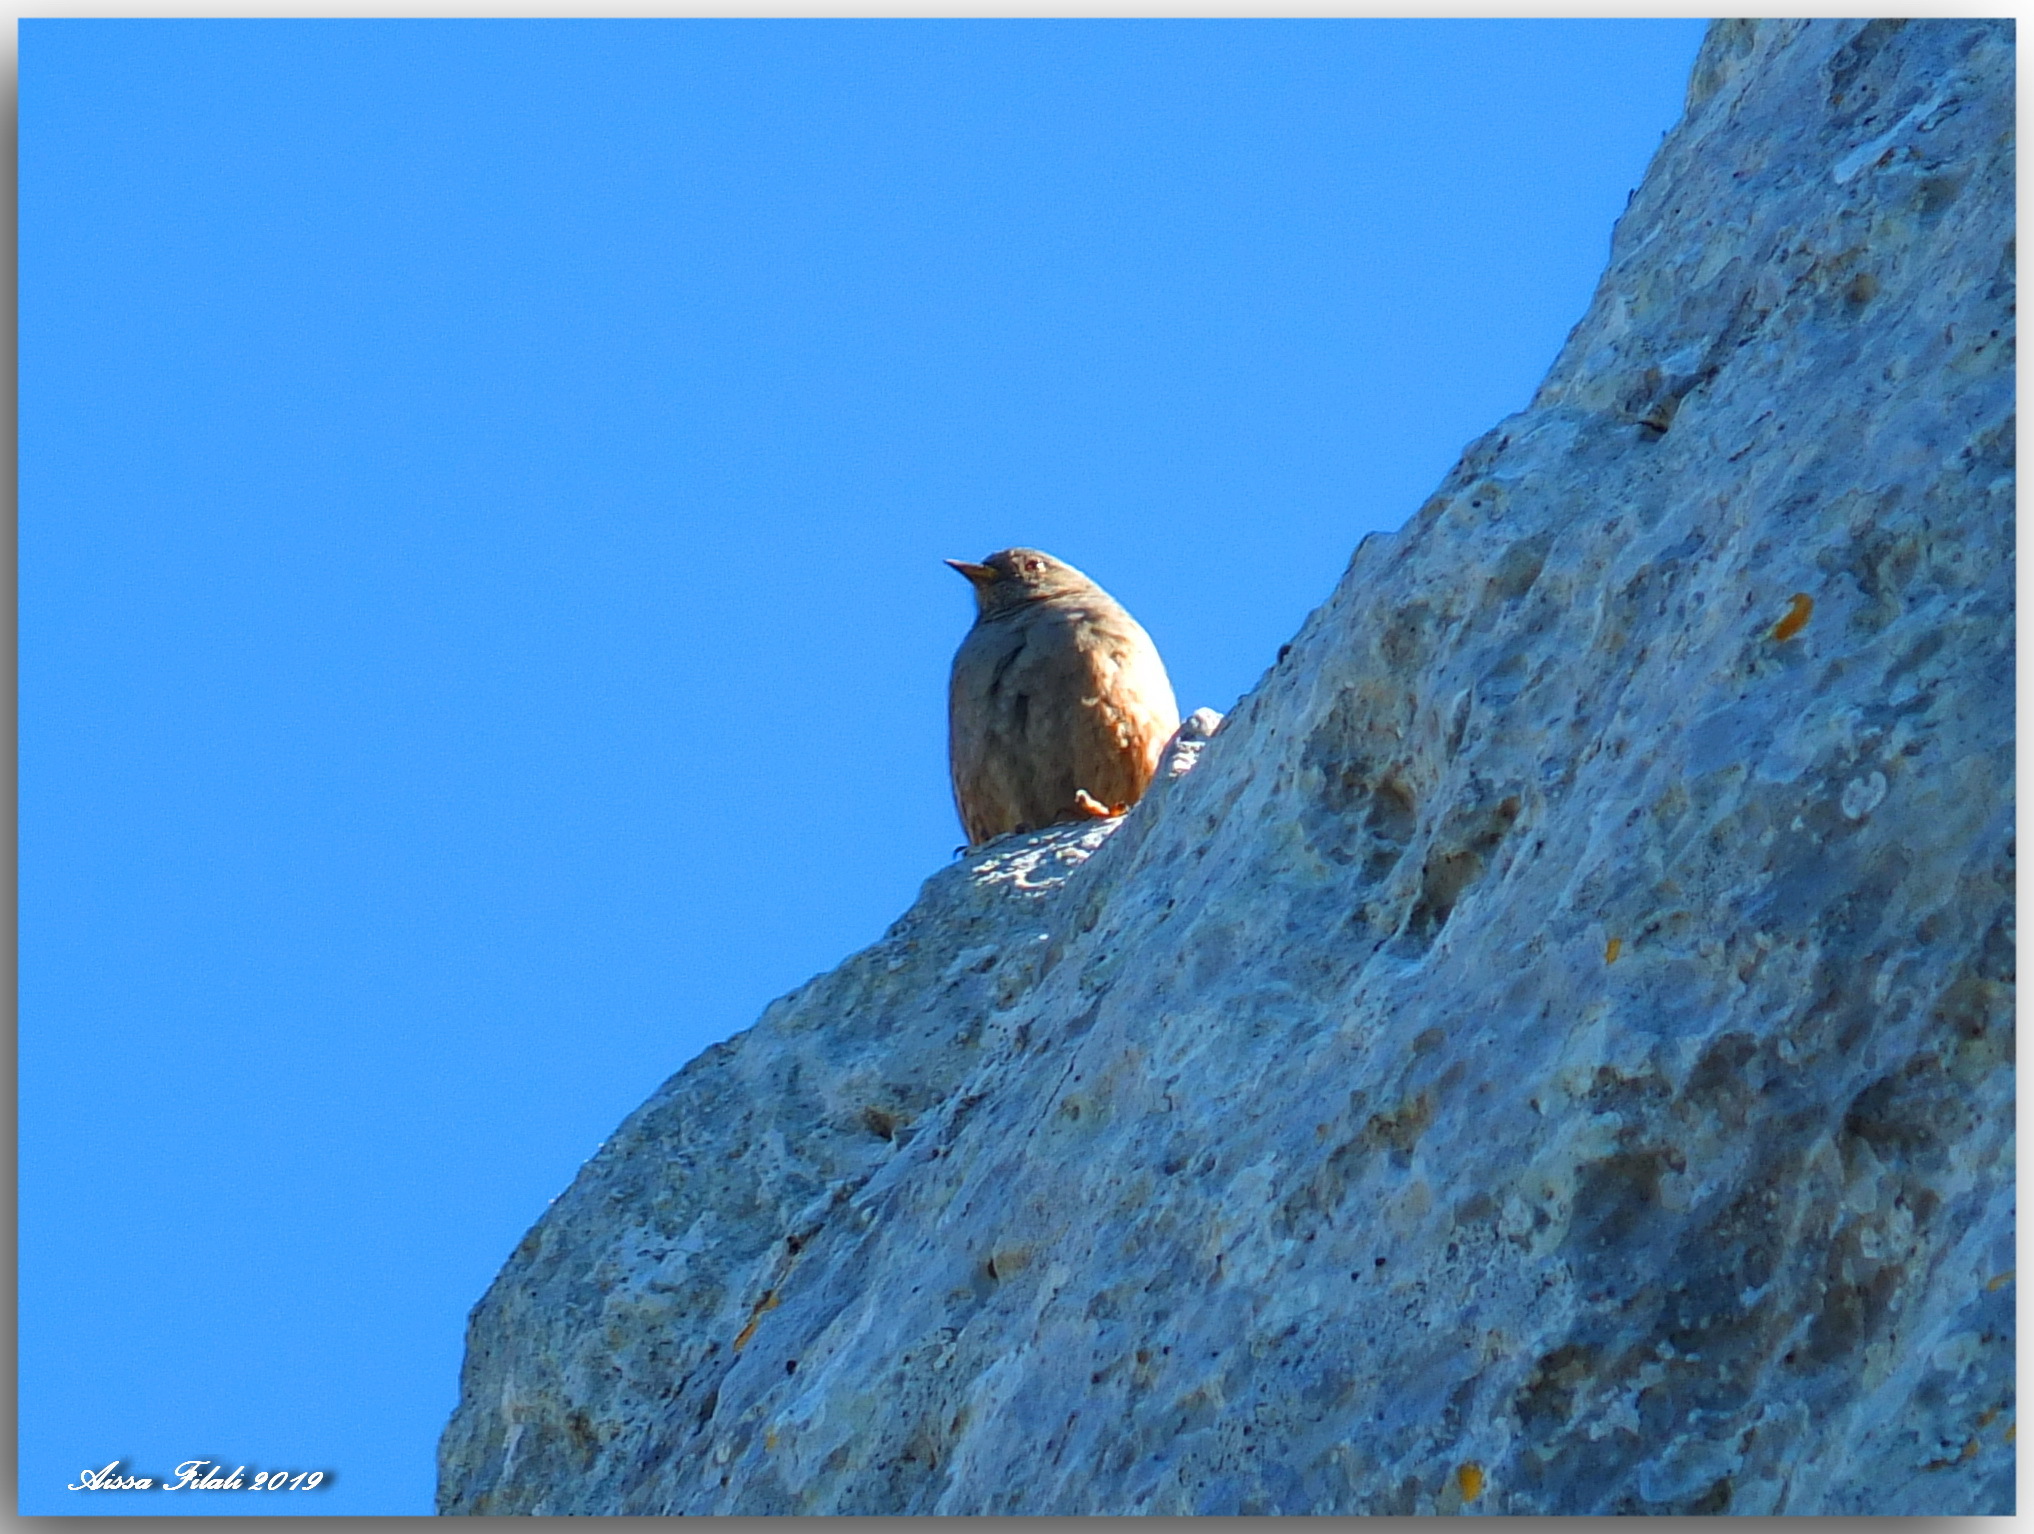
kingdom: Animalia
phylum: Chordata
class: Aves
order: Passeriformes
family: Prunellidae
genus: Prunella
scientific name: Prunella collaris
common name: Alpine accentor
